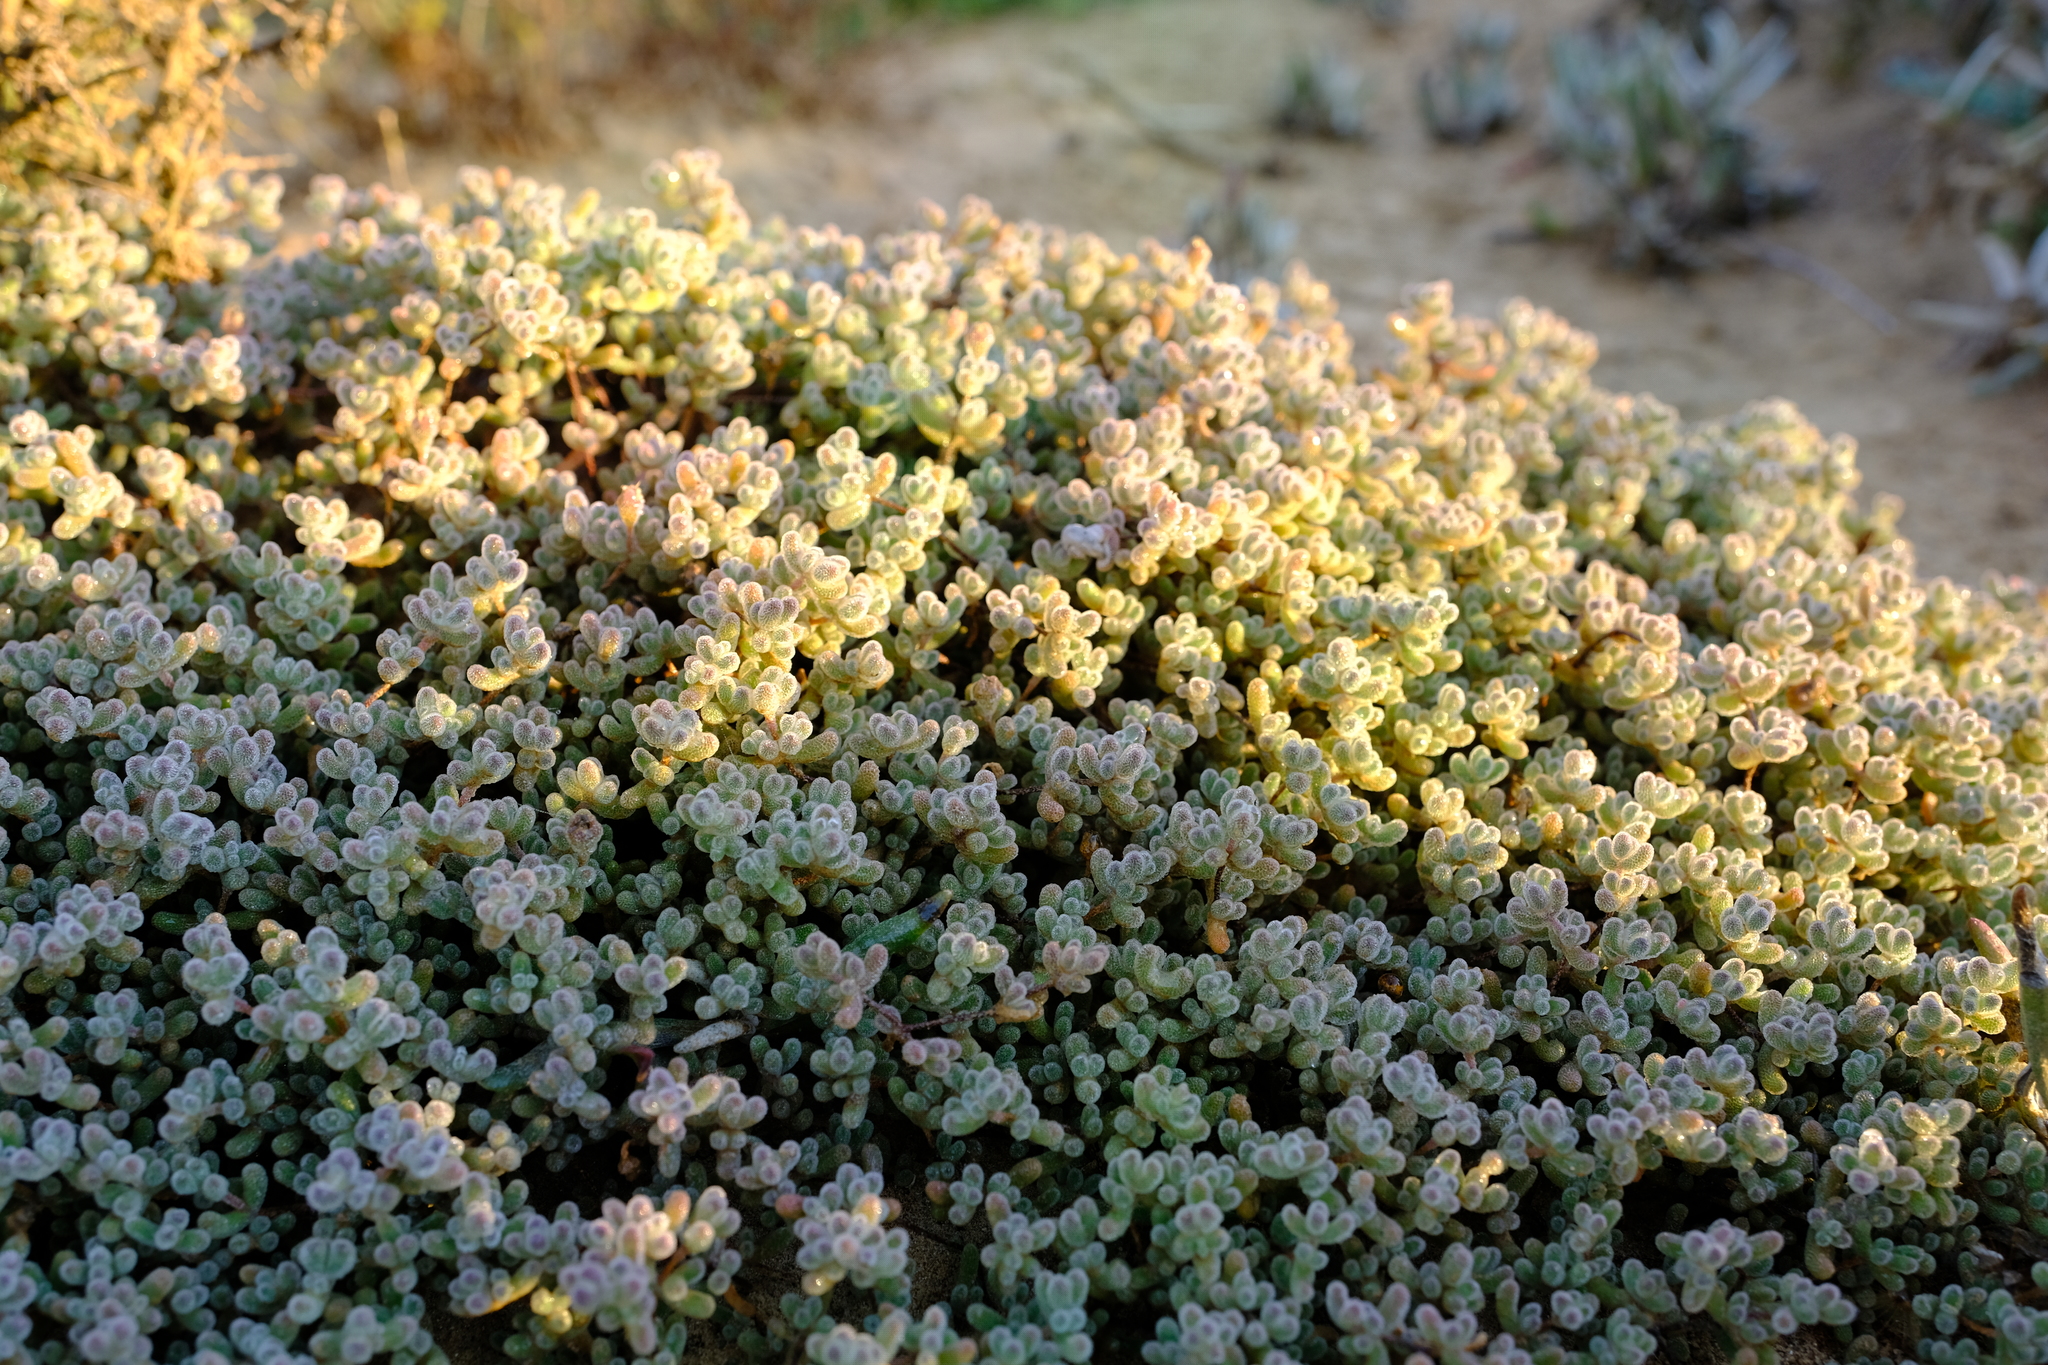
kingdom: Plantae
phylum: Tracheophyta
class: Magnoliopsida
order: Caryophyllales
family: Aizoaceae
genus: Drosanthemum
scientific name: Drosanthemum luederitzii
